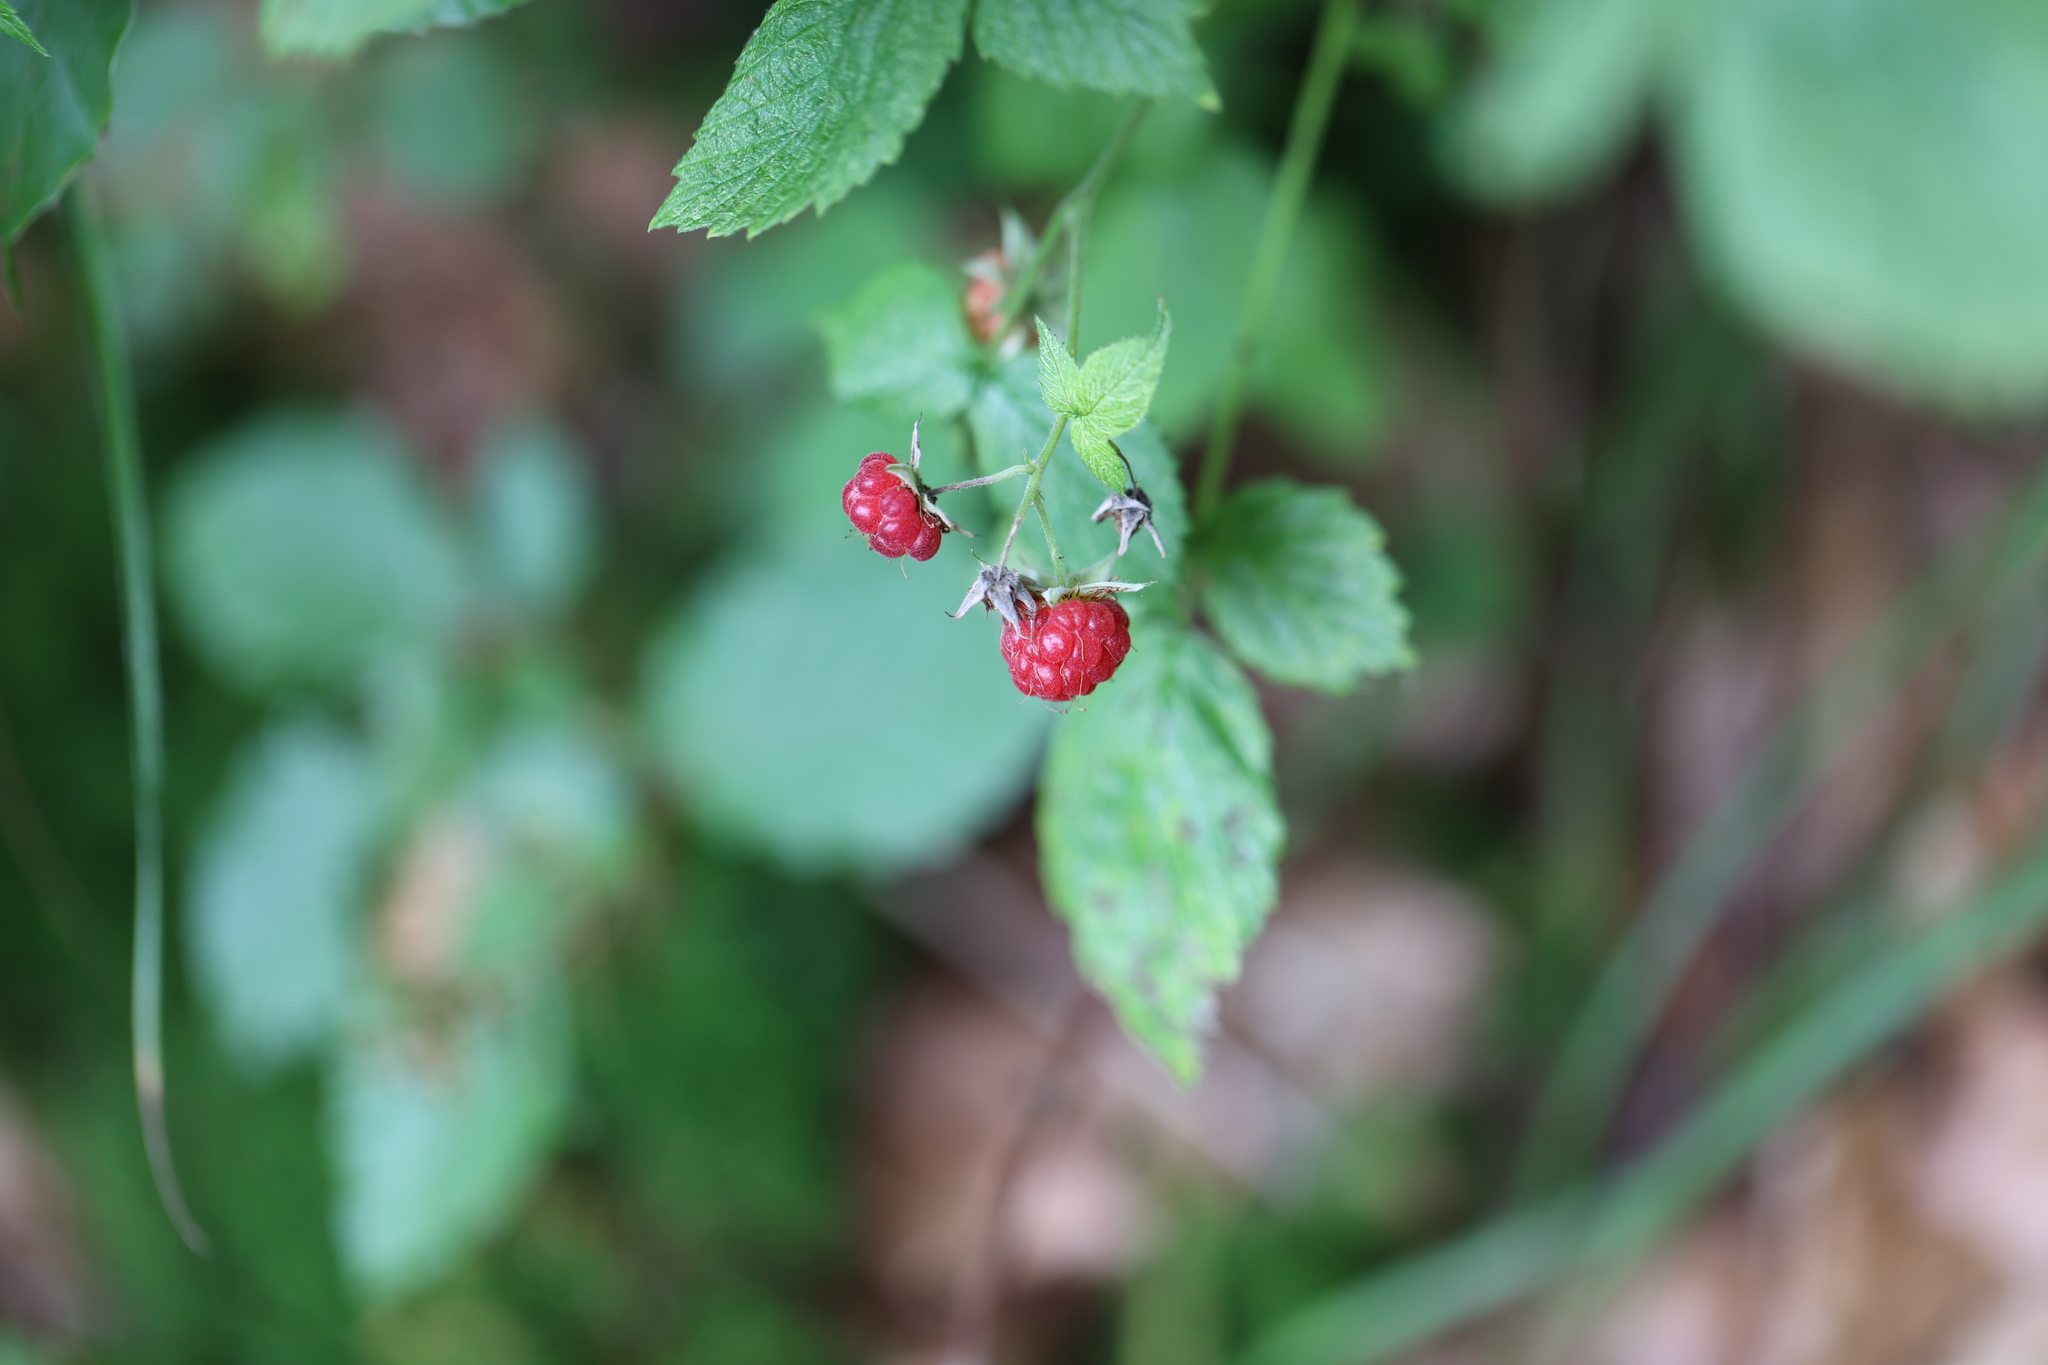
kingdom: Plantae
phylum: Tracheophyta
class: Magnoliopsida
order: Rosales
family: Rosaceae
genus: Rubus
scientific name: Rubus idaeus
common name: Raspberry
